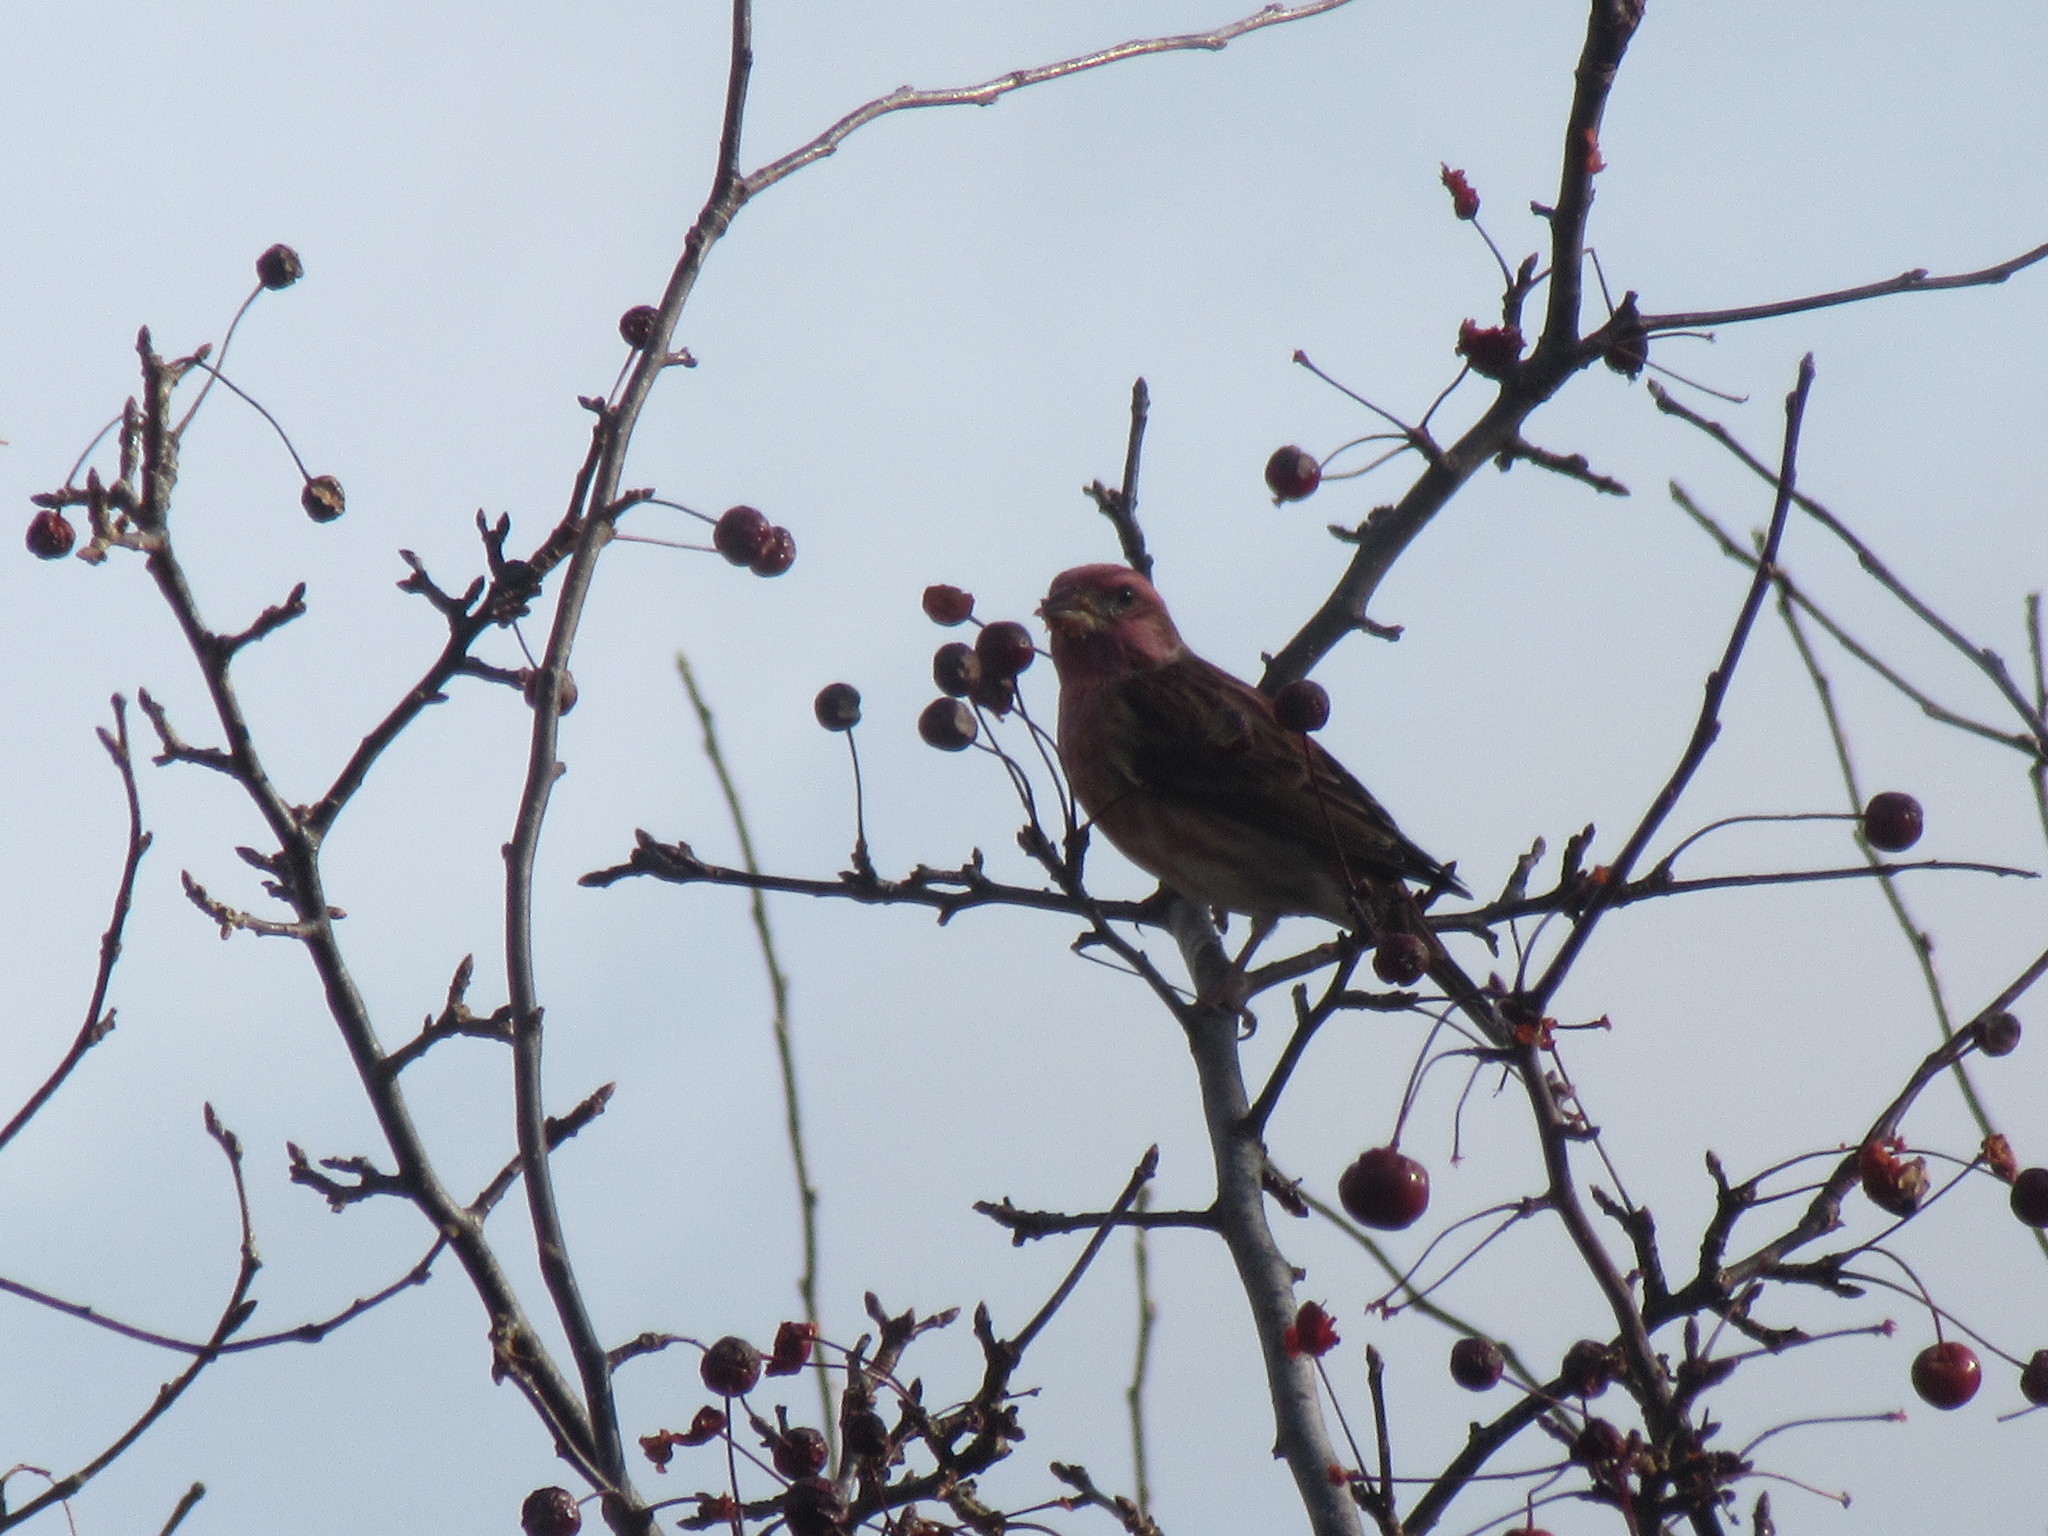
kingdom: Animalia
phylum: Chordata
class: Aves
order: Passeriformes
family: Fringillidae
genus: Haemorhous
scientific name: Haemorhous purpureus
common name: Purple finch
